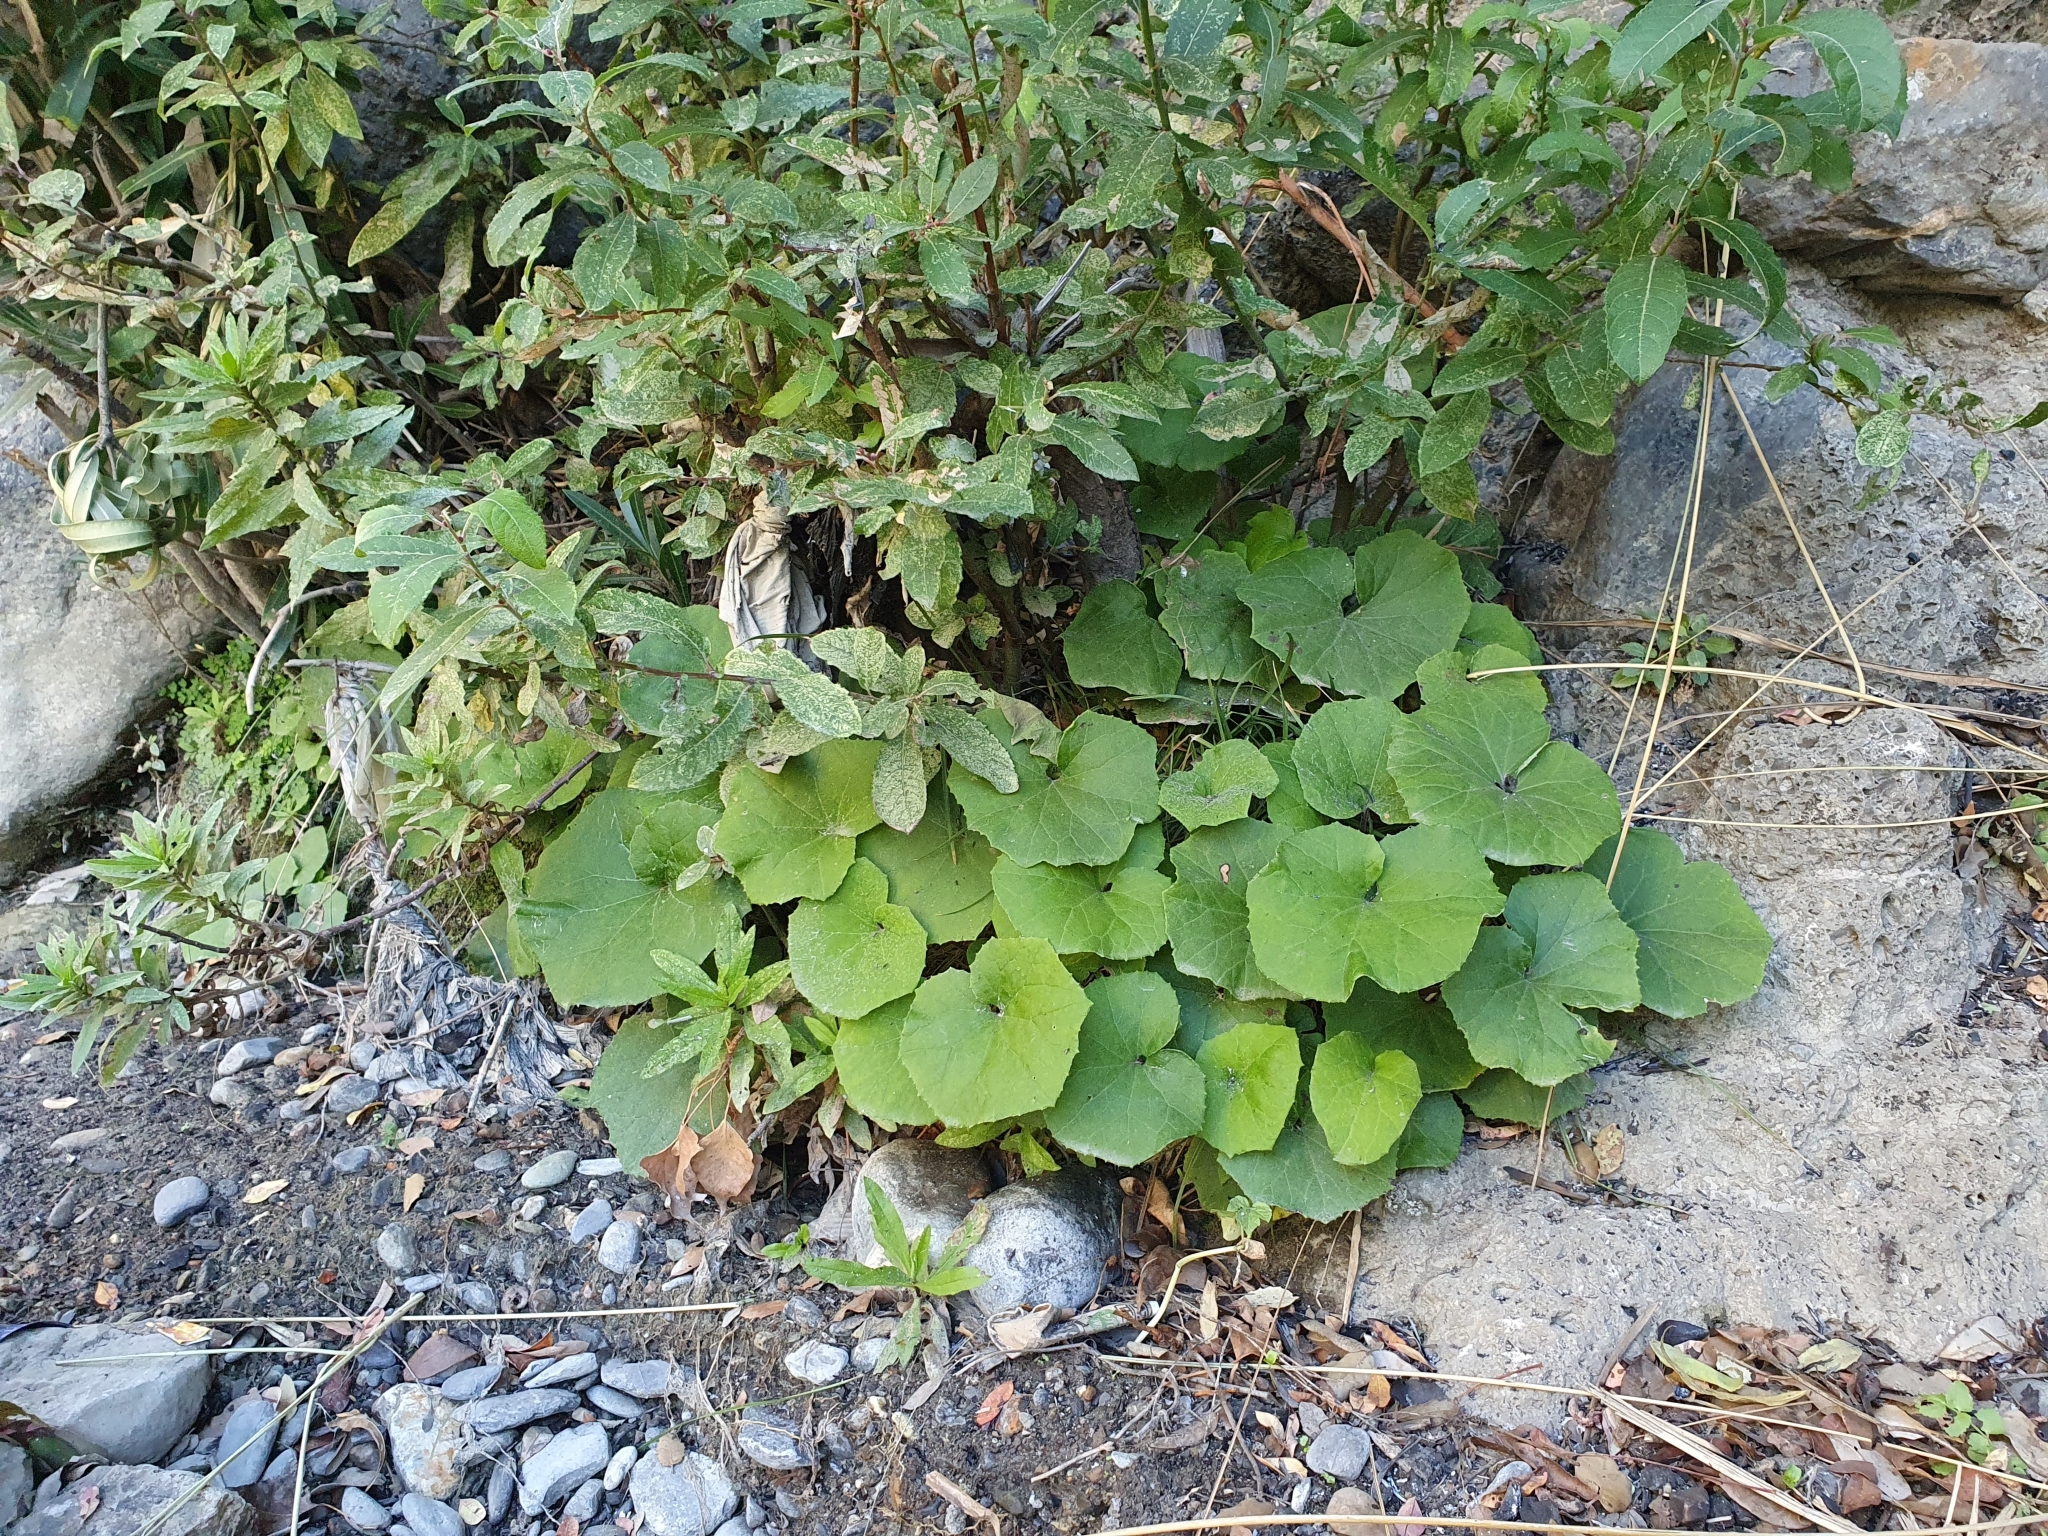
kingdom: Plantae
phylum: Tracheophyta
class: Magnoliopsida
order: Asterales
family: Asteraceae
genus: Tussilago
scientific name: Tussilago farfara
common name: Coltsfoot
